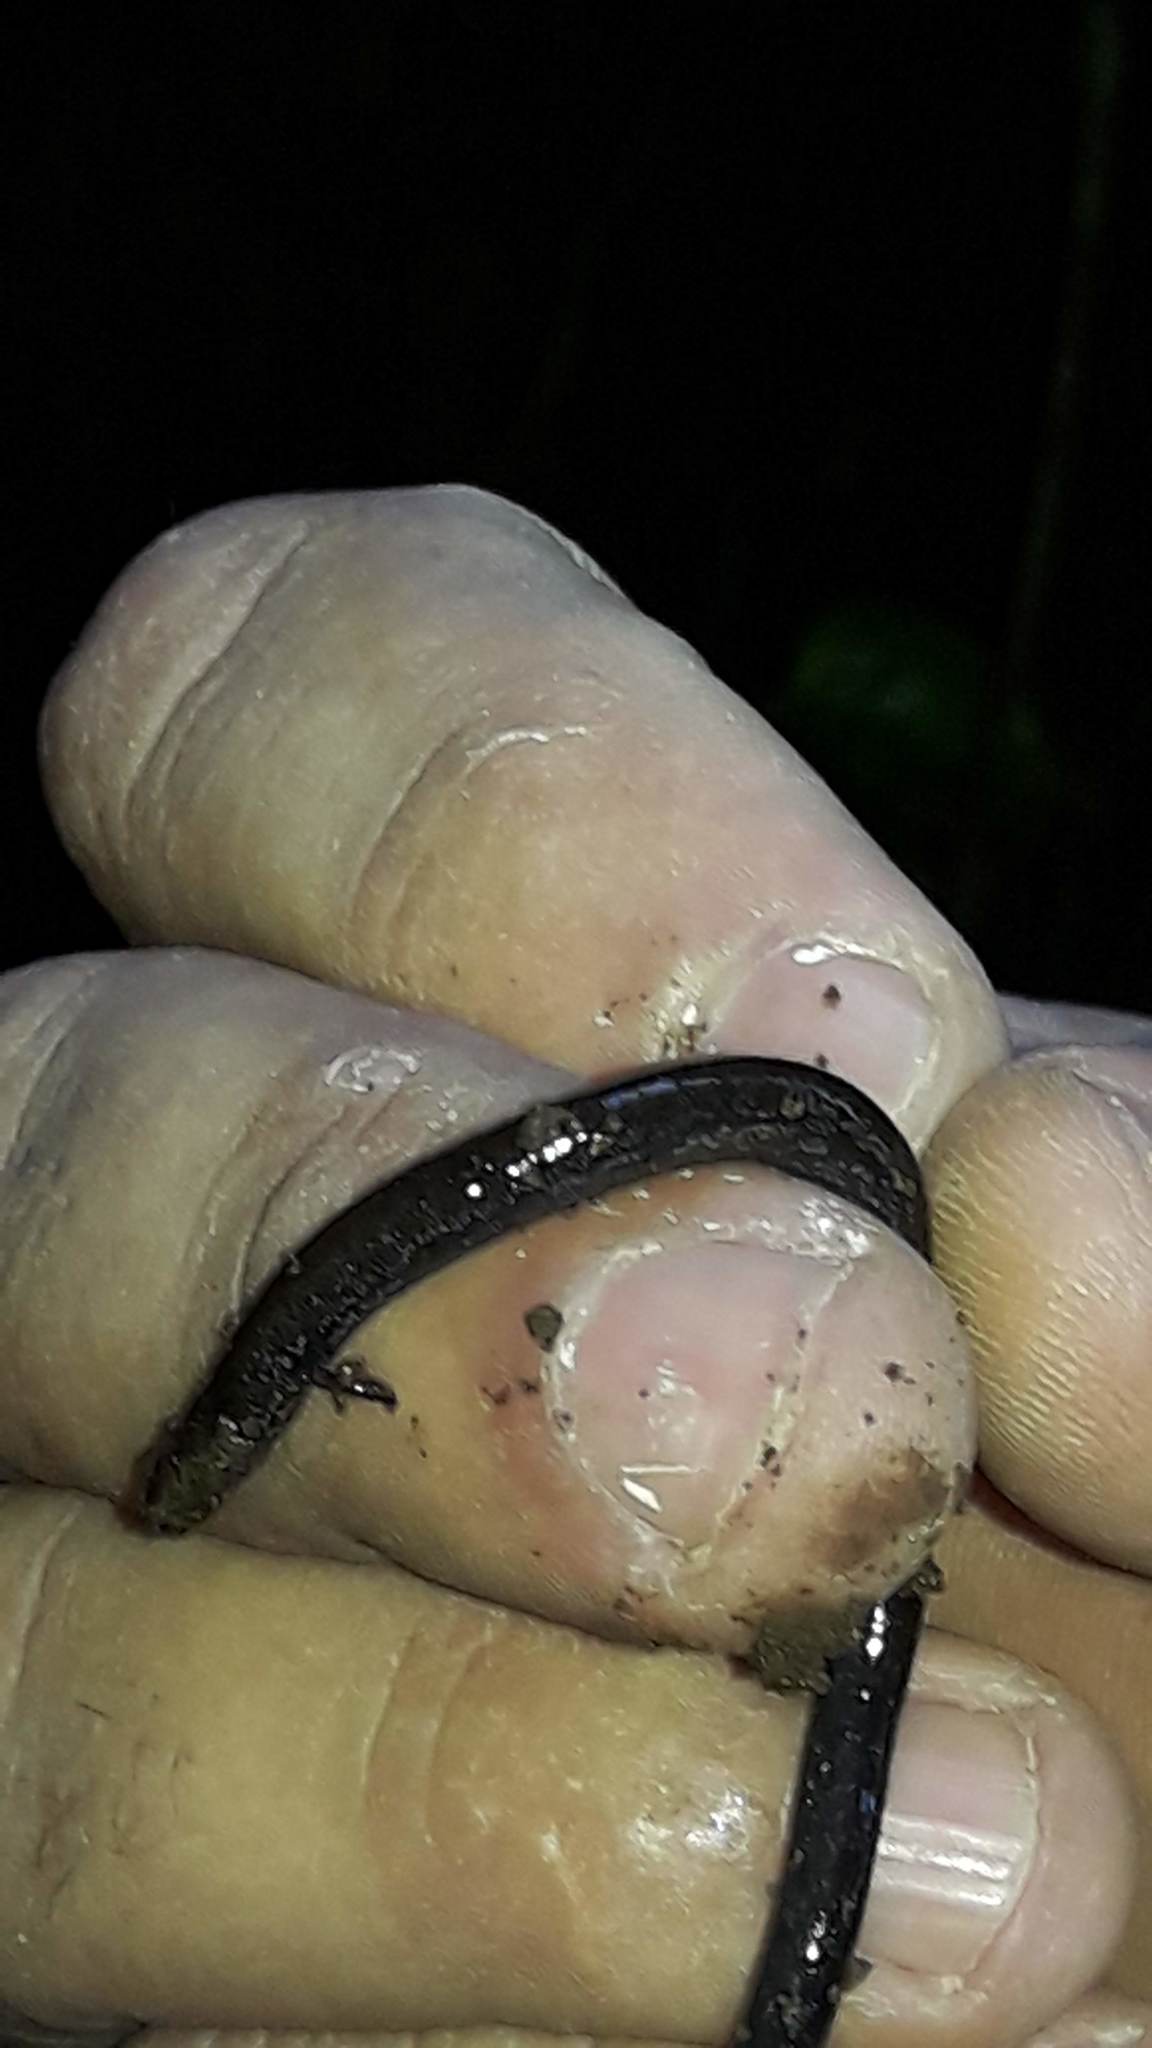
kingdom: Animalia
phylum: Chordata
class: Amphibia
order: Caudata
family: Plethodontidae
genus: Oedipina
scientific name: Oedipina pseudouniformis
